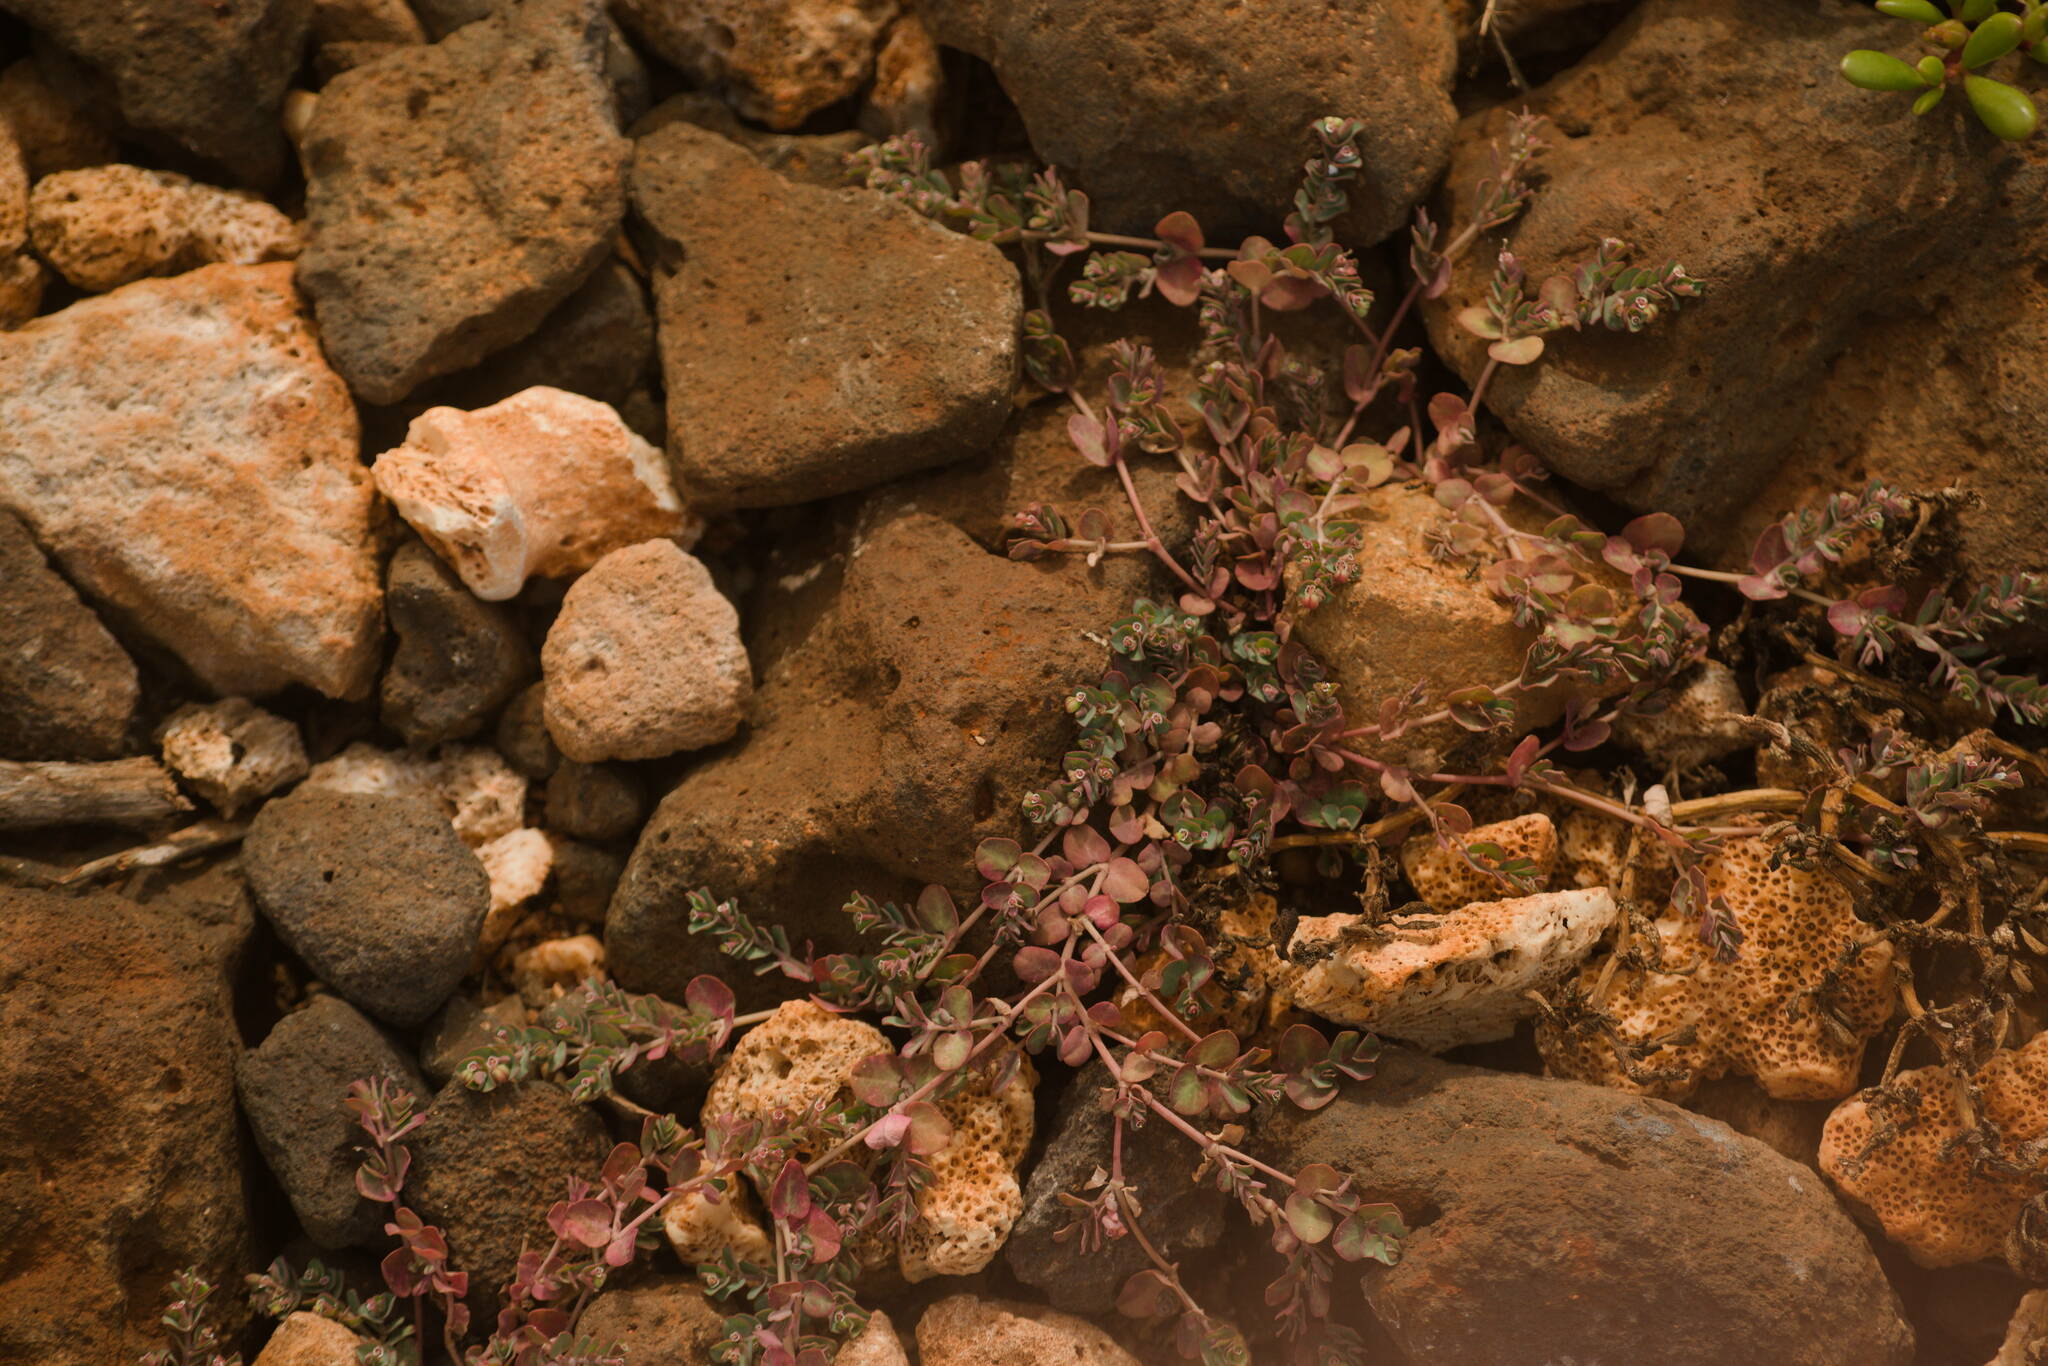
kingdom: Plantae
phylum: Tracheophyta
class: Magnoliopsida
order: Malpighiales
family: Euphorbiaceae
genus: Euphorbia
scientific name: Euphorbia serpens
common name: Matted sandmat
